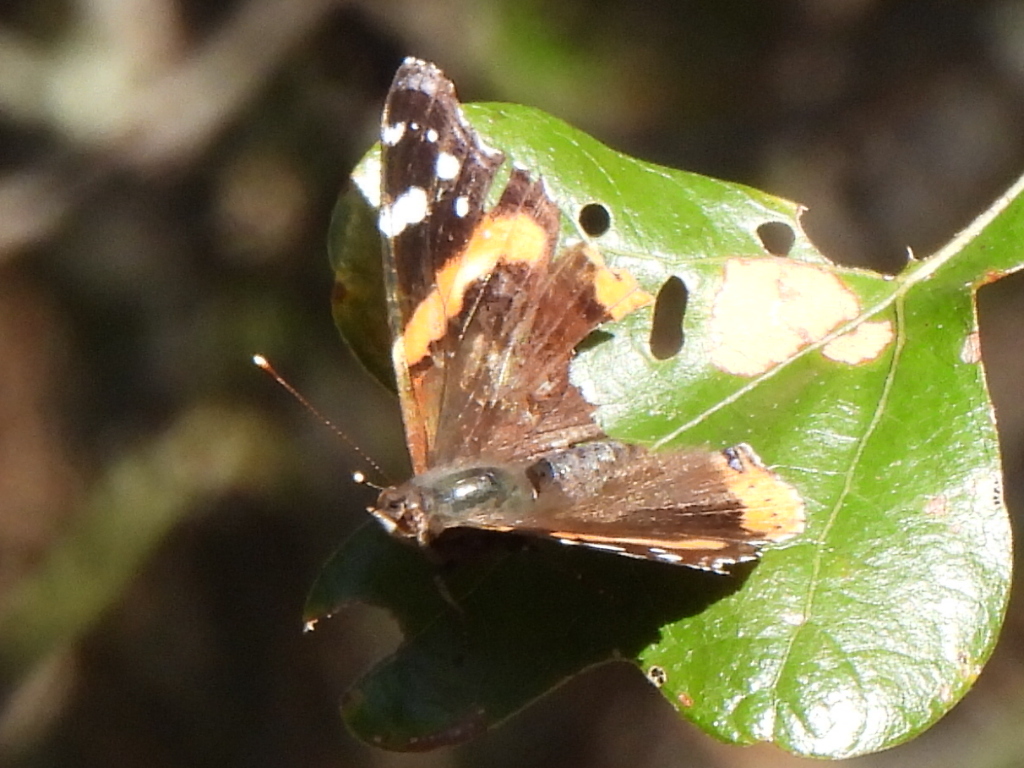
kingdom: Animalia
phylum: Arthropoda
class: Insecta
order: Lepidoptera
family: Nymphalidae
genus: Vanessa
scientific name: Vanessa atalanta
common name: Red admiral
